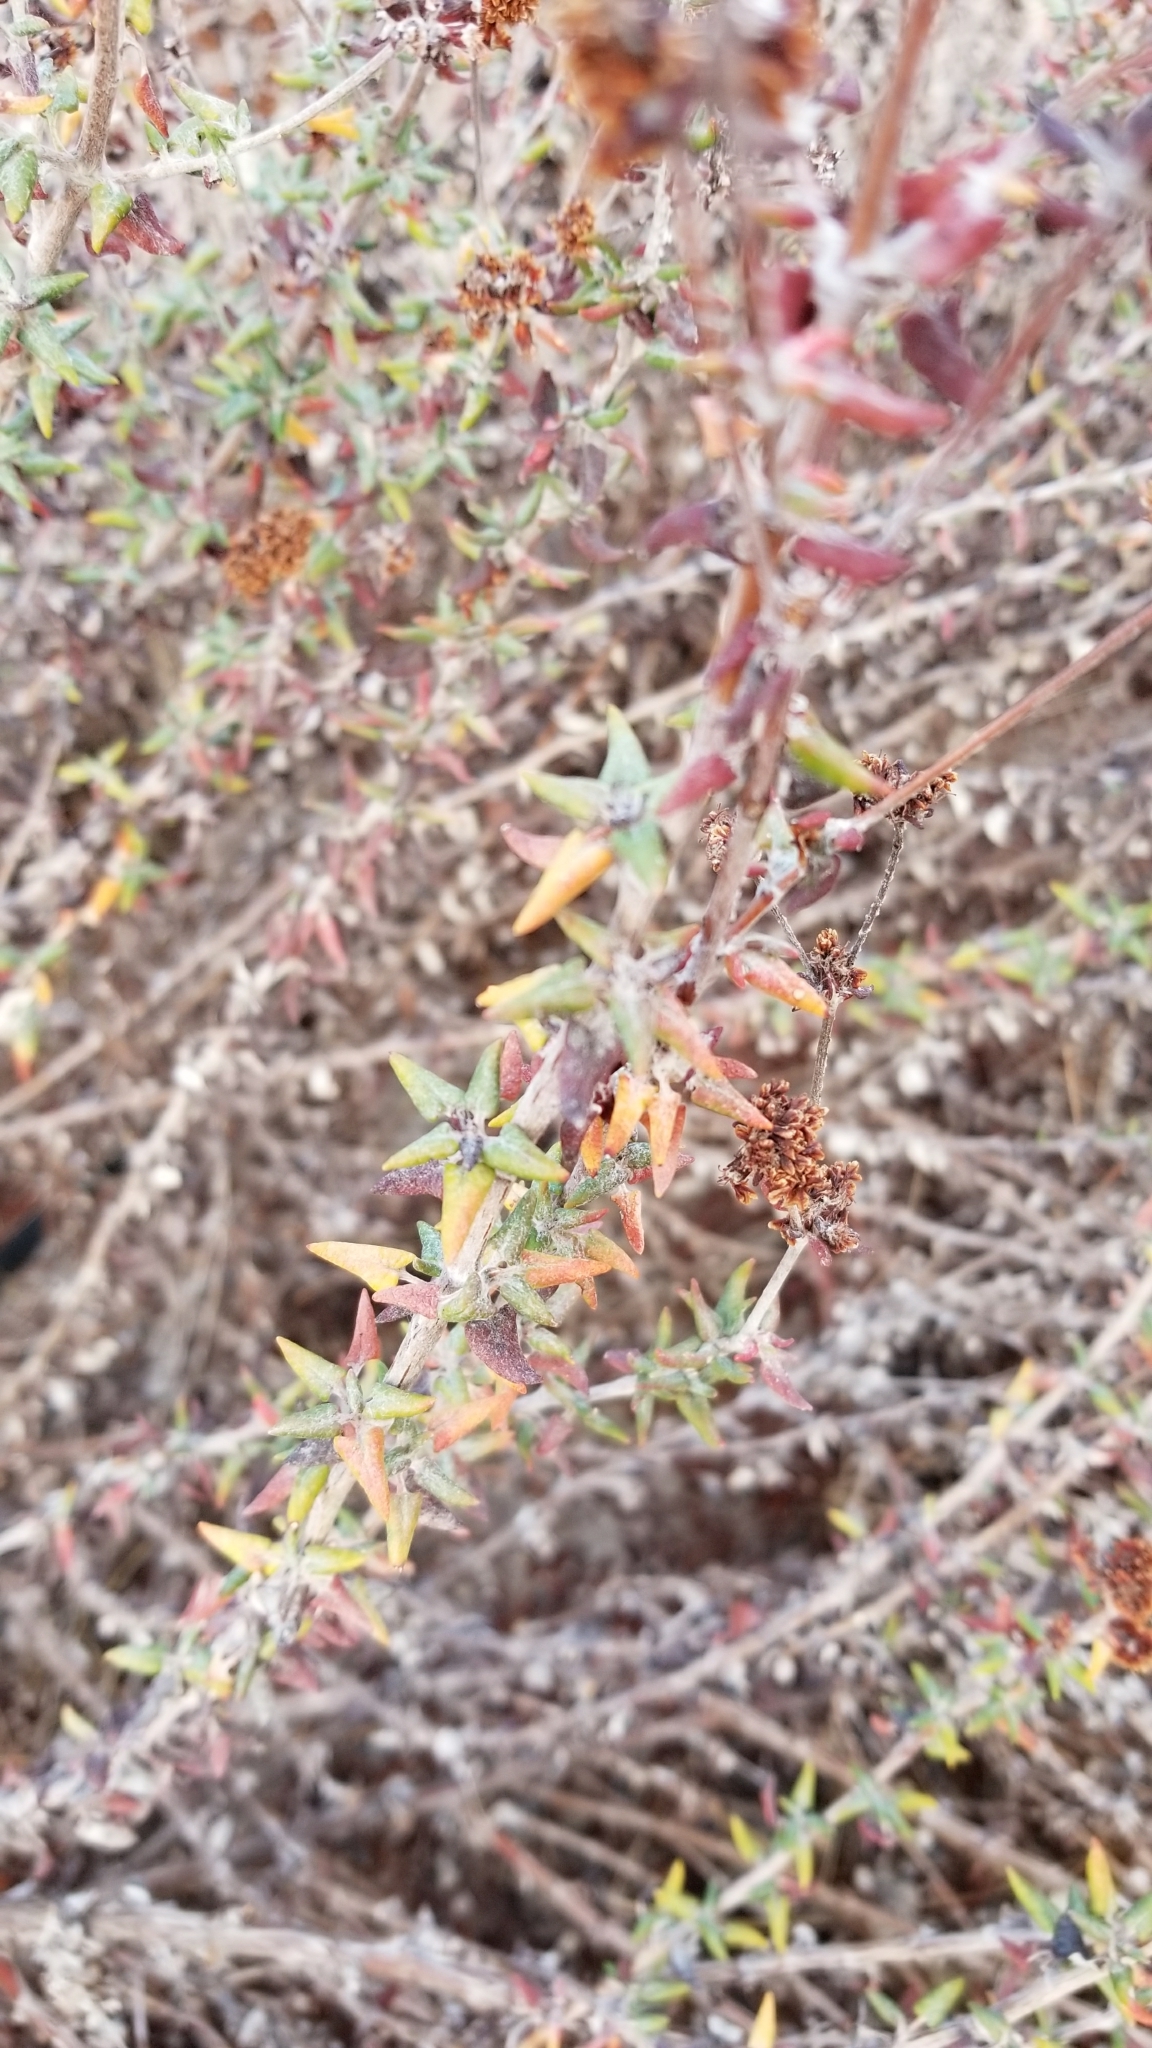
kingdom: Plantae
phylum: Tracheophyta
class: Magnoliopsida
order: Caryophyllales
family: Polygonaceae
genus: Eriogonum
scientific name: Eriogonum parvifolium
